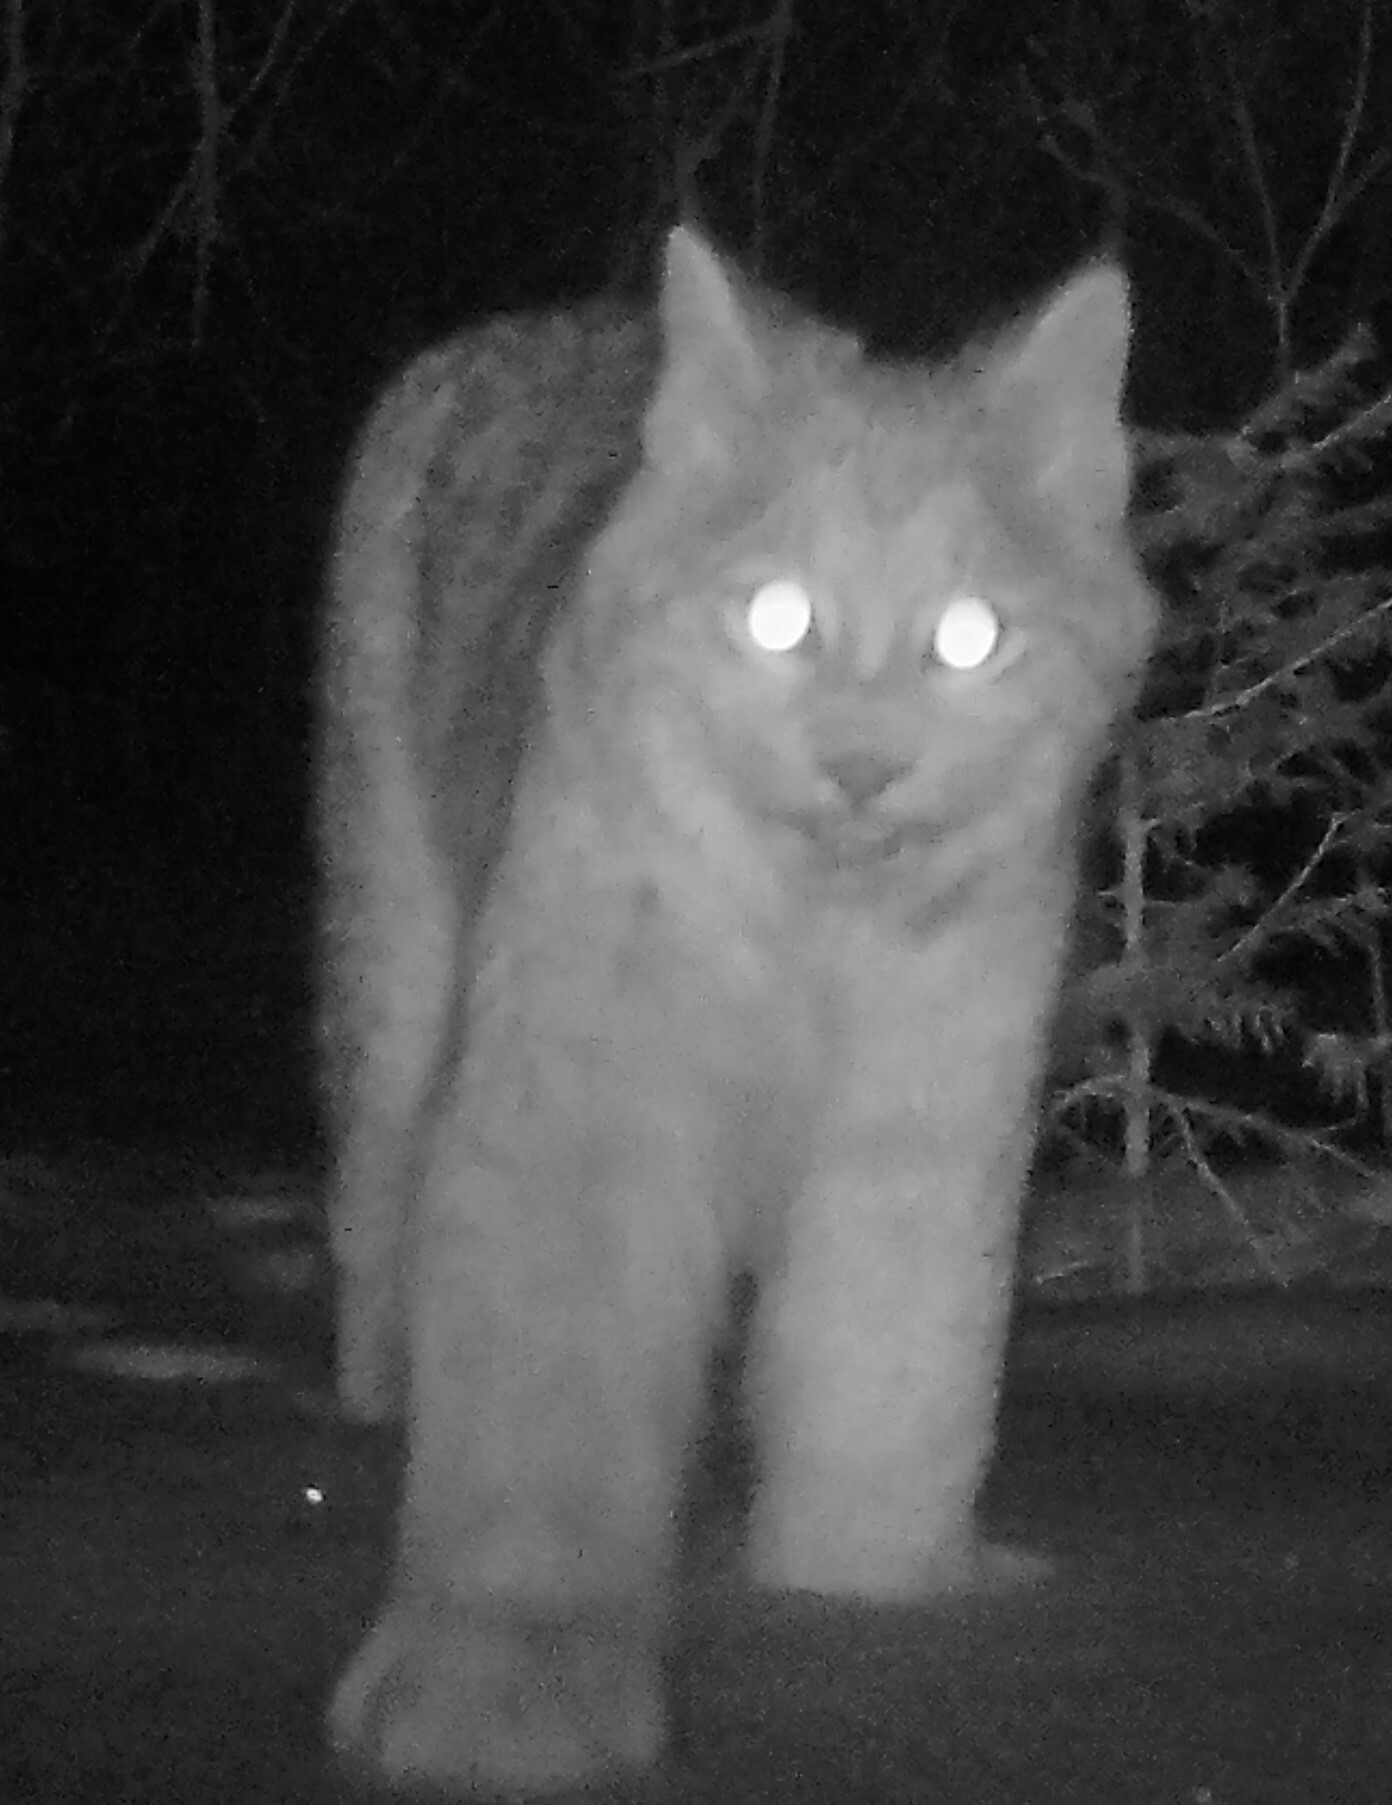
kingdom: Animalia
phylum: Chordata
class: Mammalia
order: Carnivora
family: Felidae
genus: Lynx
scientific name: Lynx canadensis
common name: Canadian lynx
